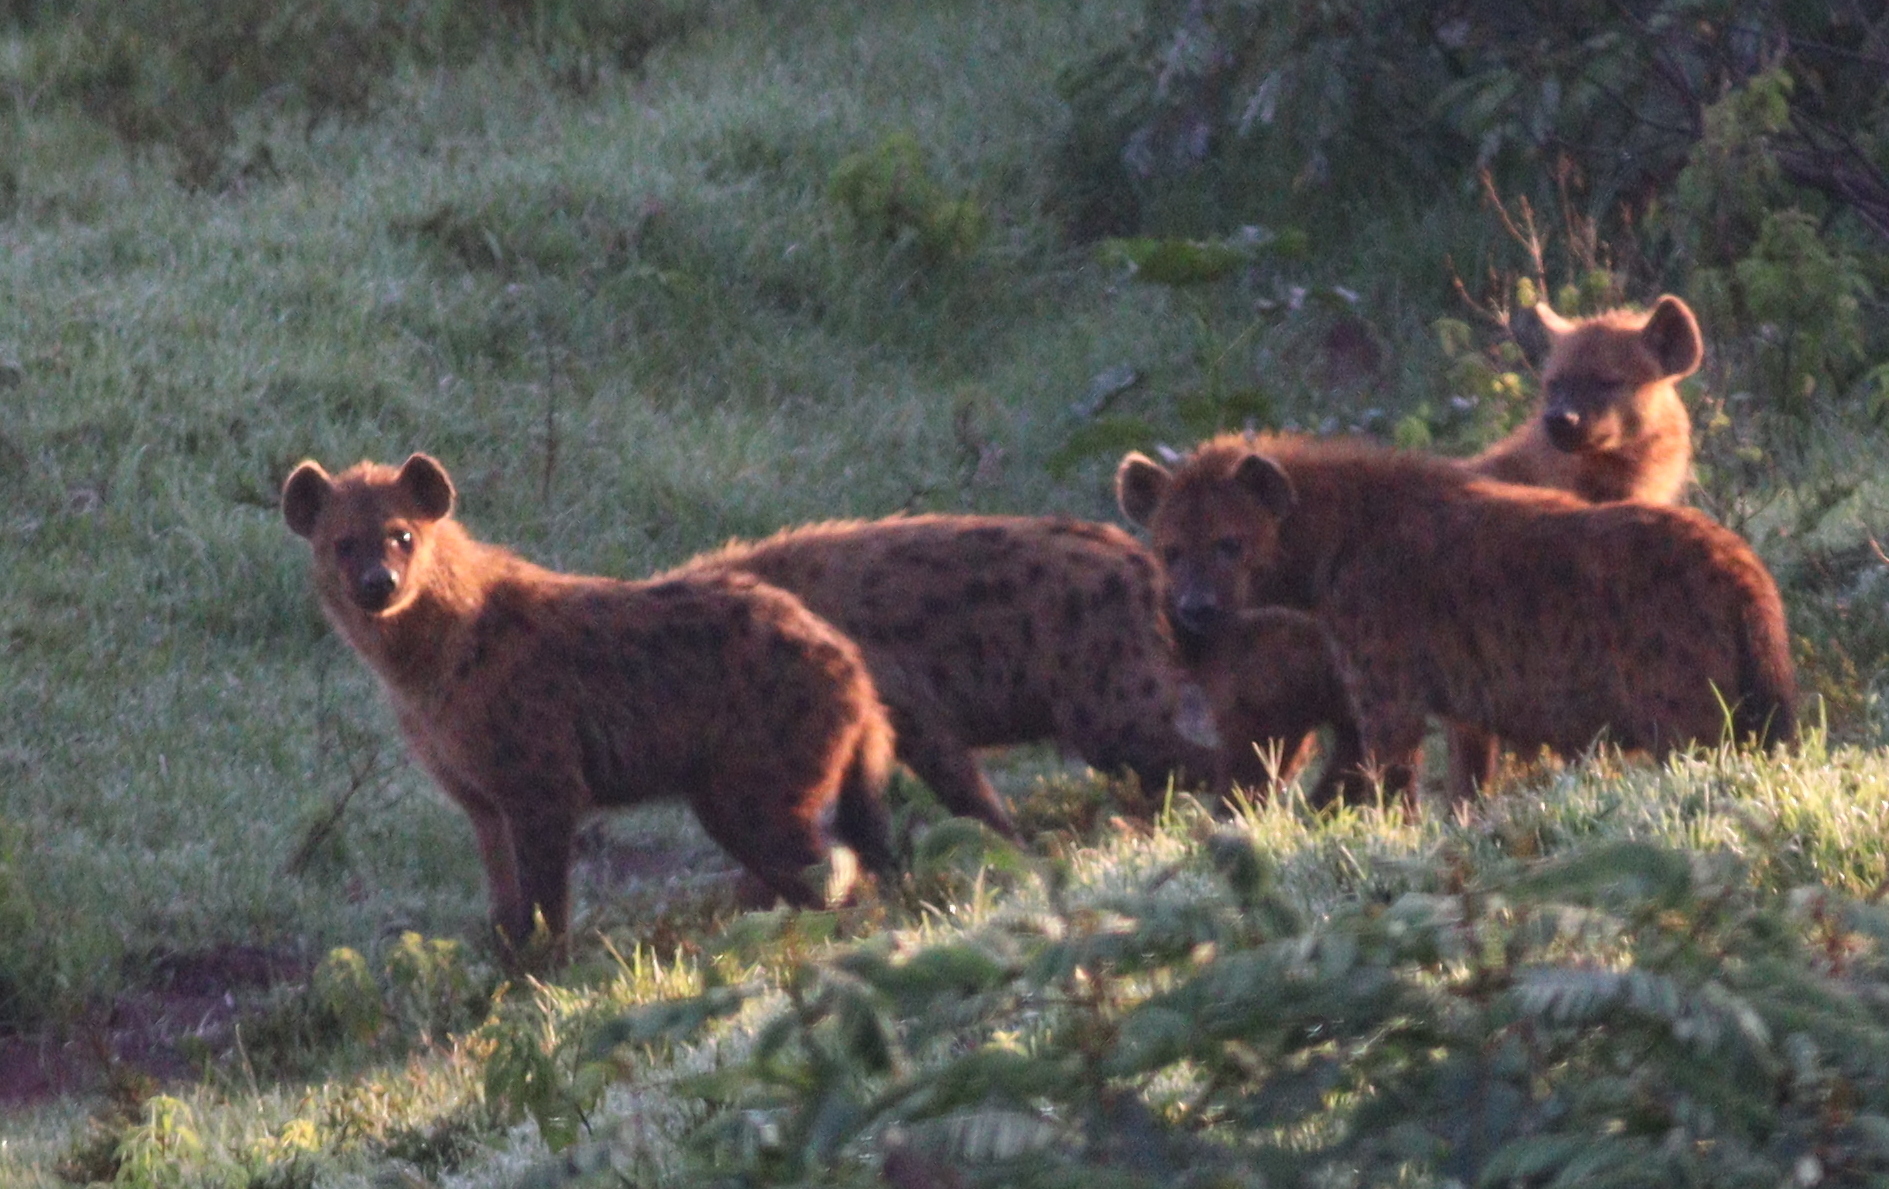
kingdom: Animalia
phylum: Chordata
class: Mammalia
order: Carnivora
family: Hyaenidae
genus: Crocuta
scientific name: Crocuta crocuta
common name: Spotted hyaena
